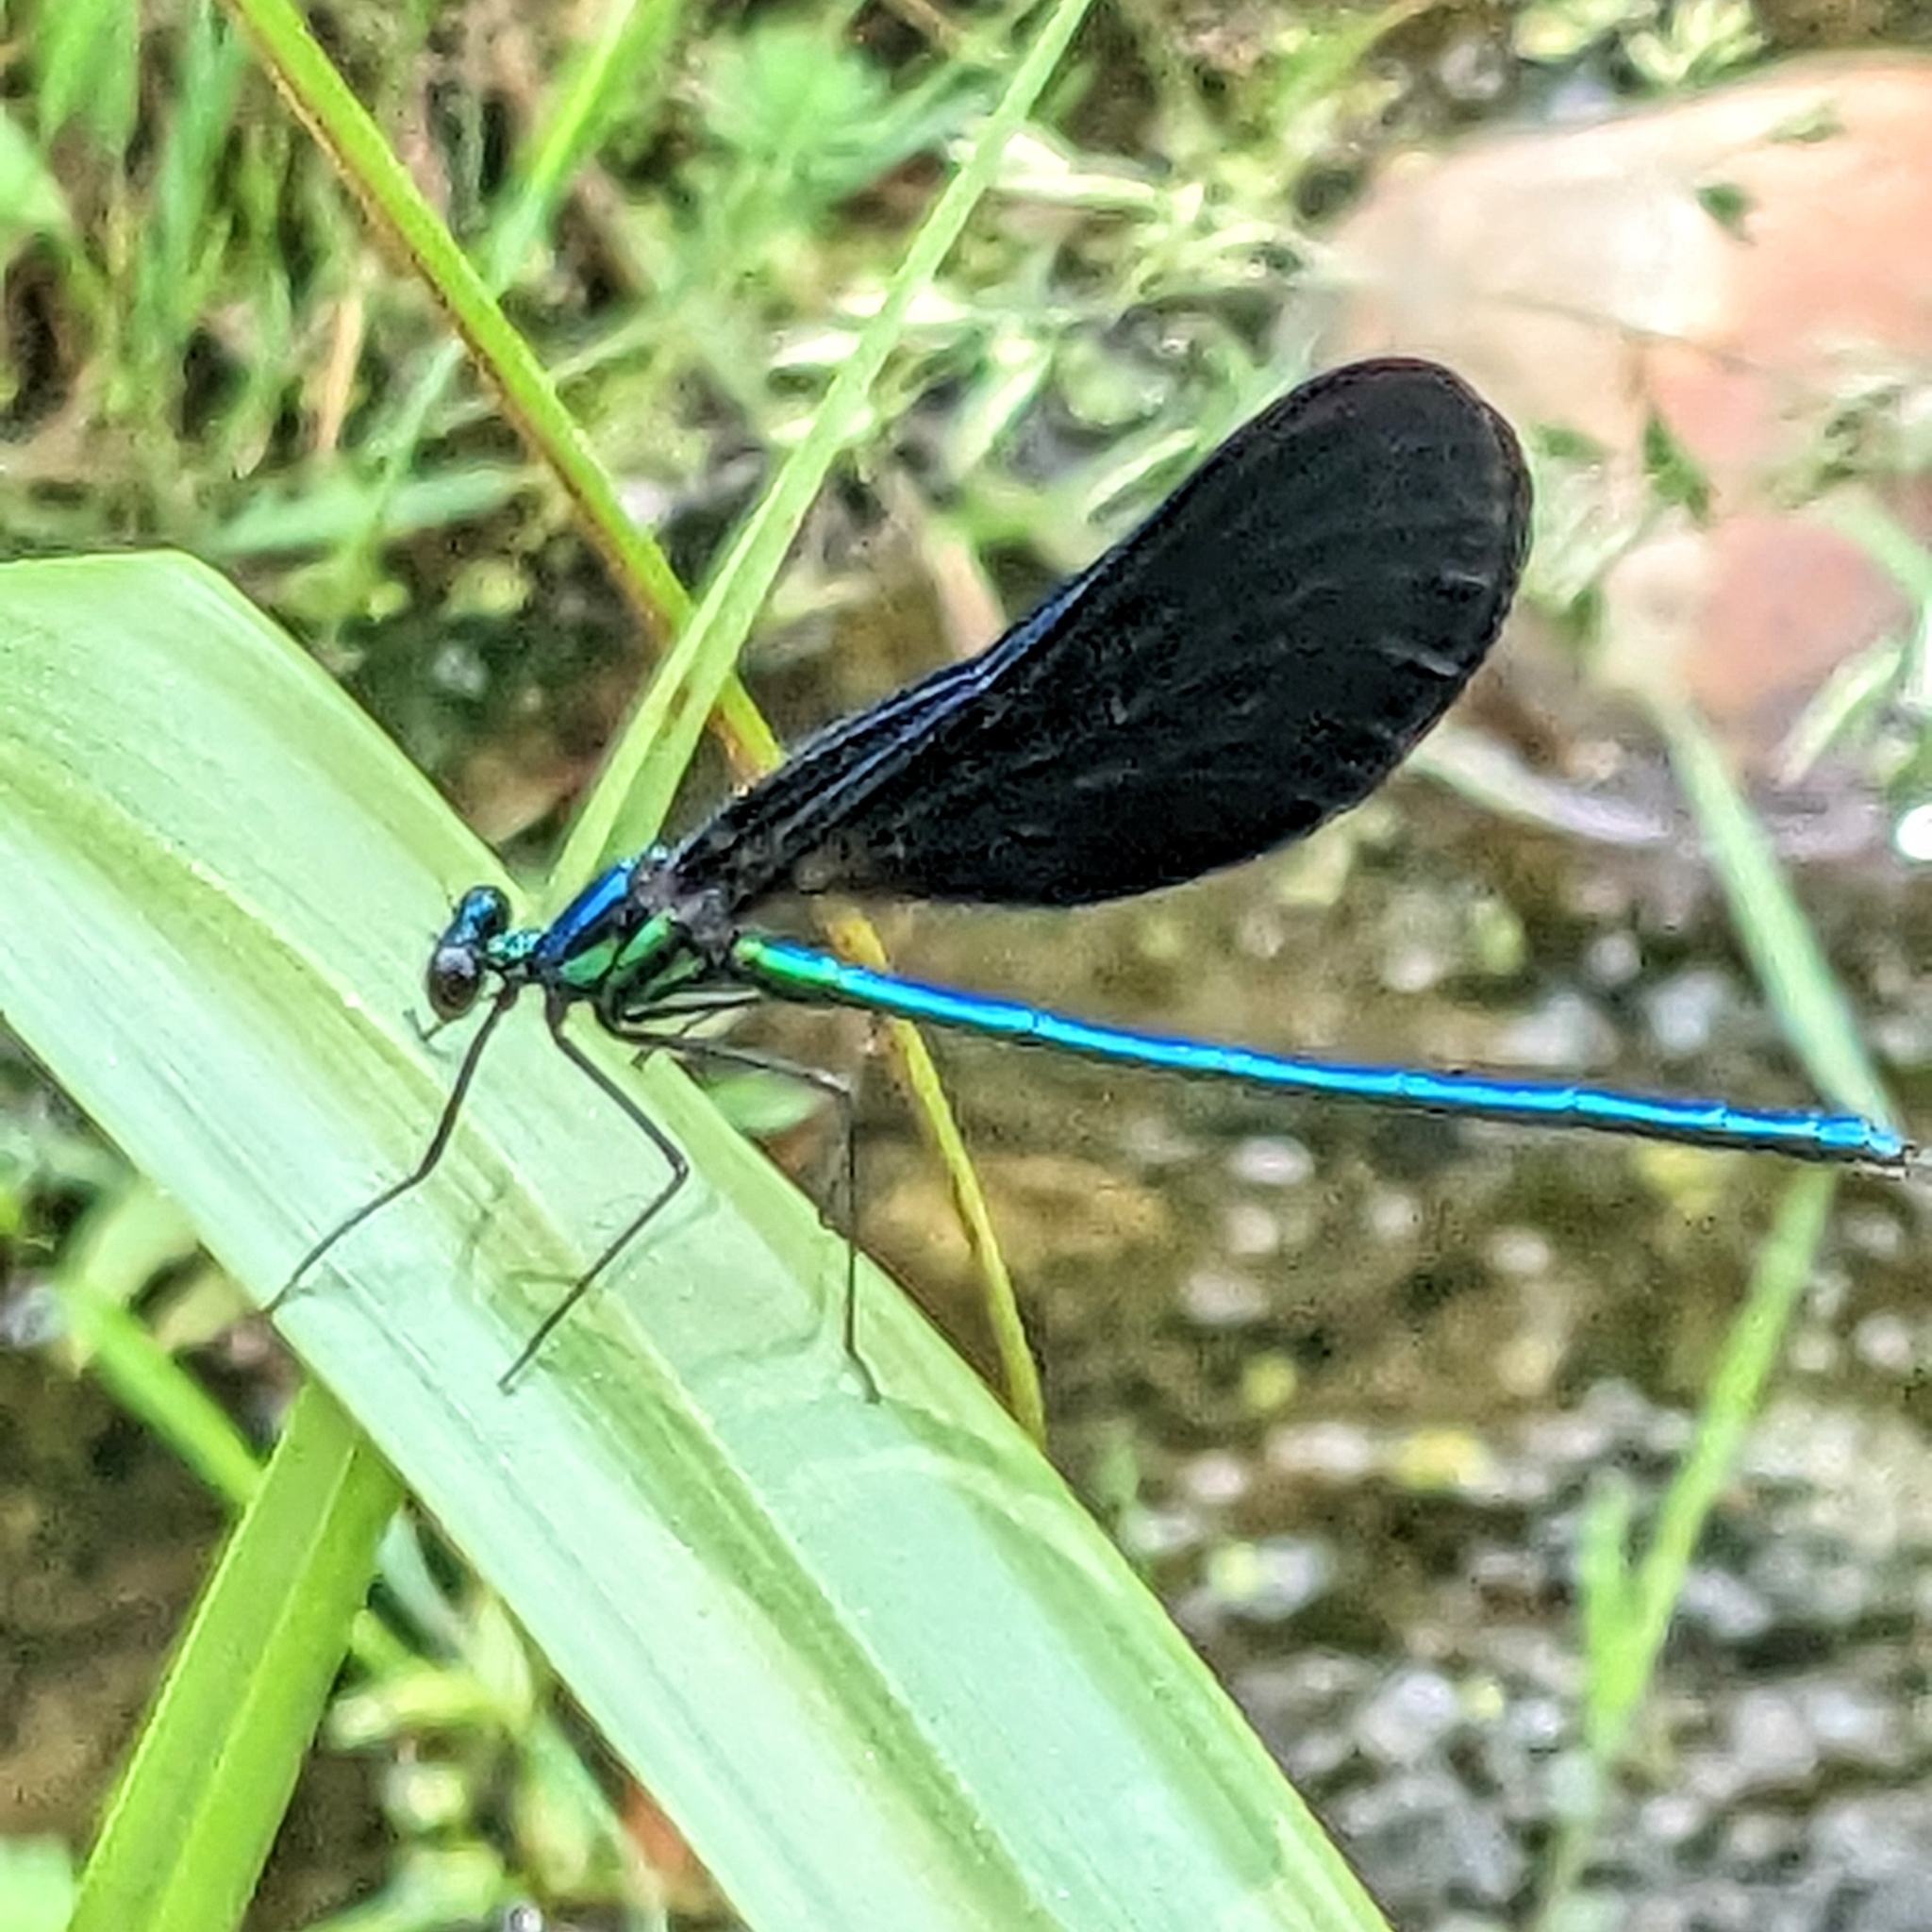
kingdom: Animalia
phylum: Arthropoda
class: Insecta
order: Odonata
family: Calopterygidae
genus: Calopteryx
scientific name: Calopteryx maculata
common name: Ebony jewelwing
